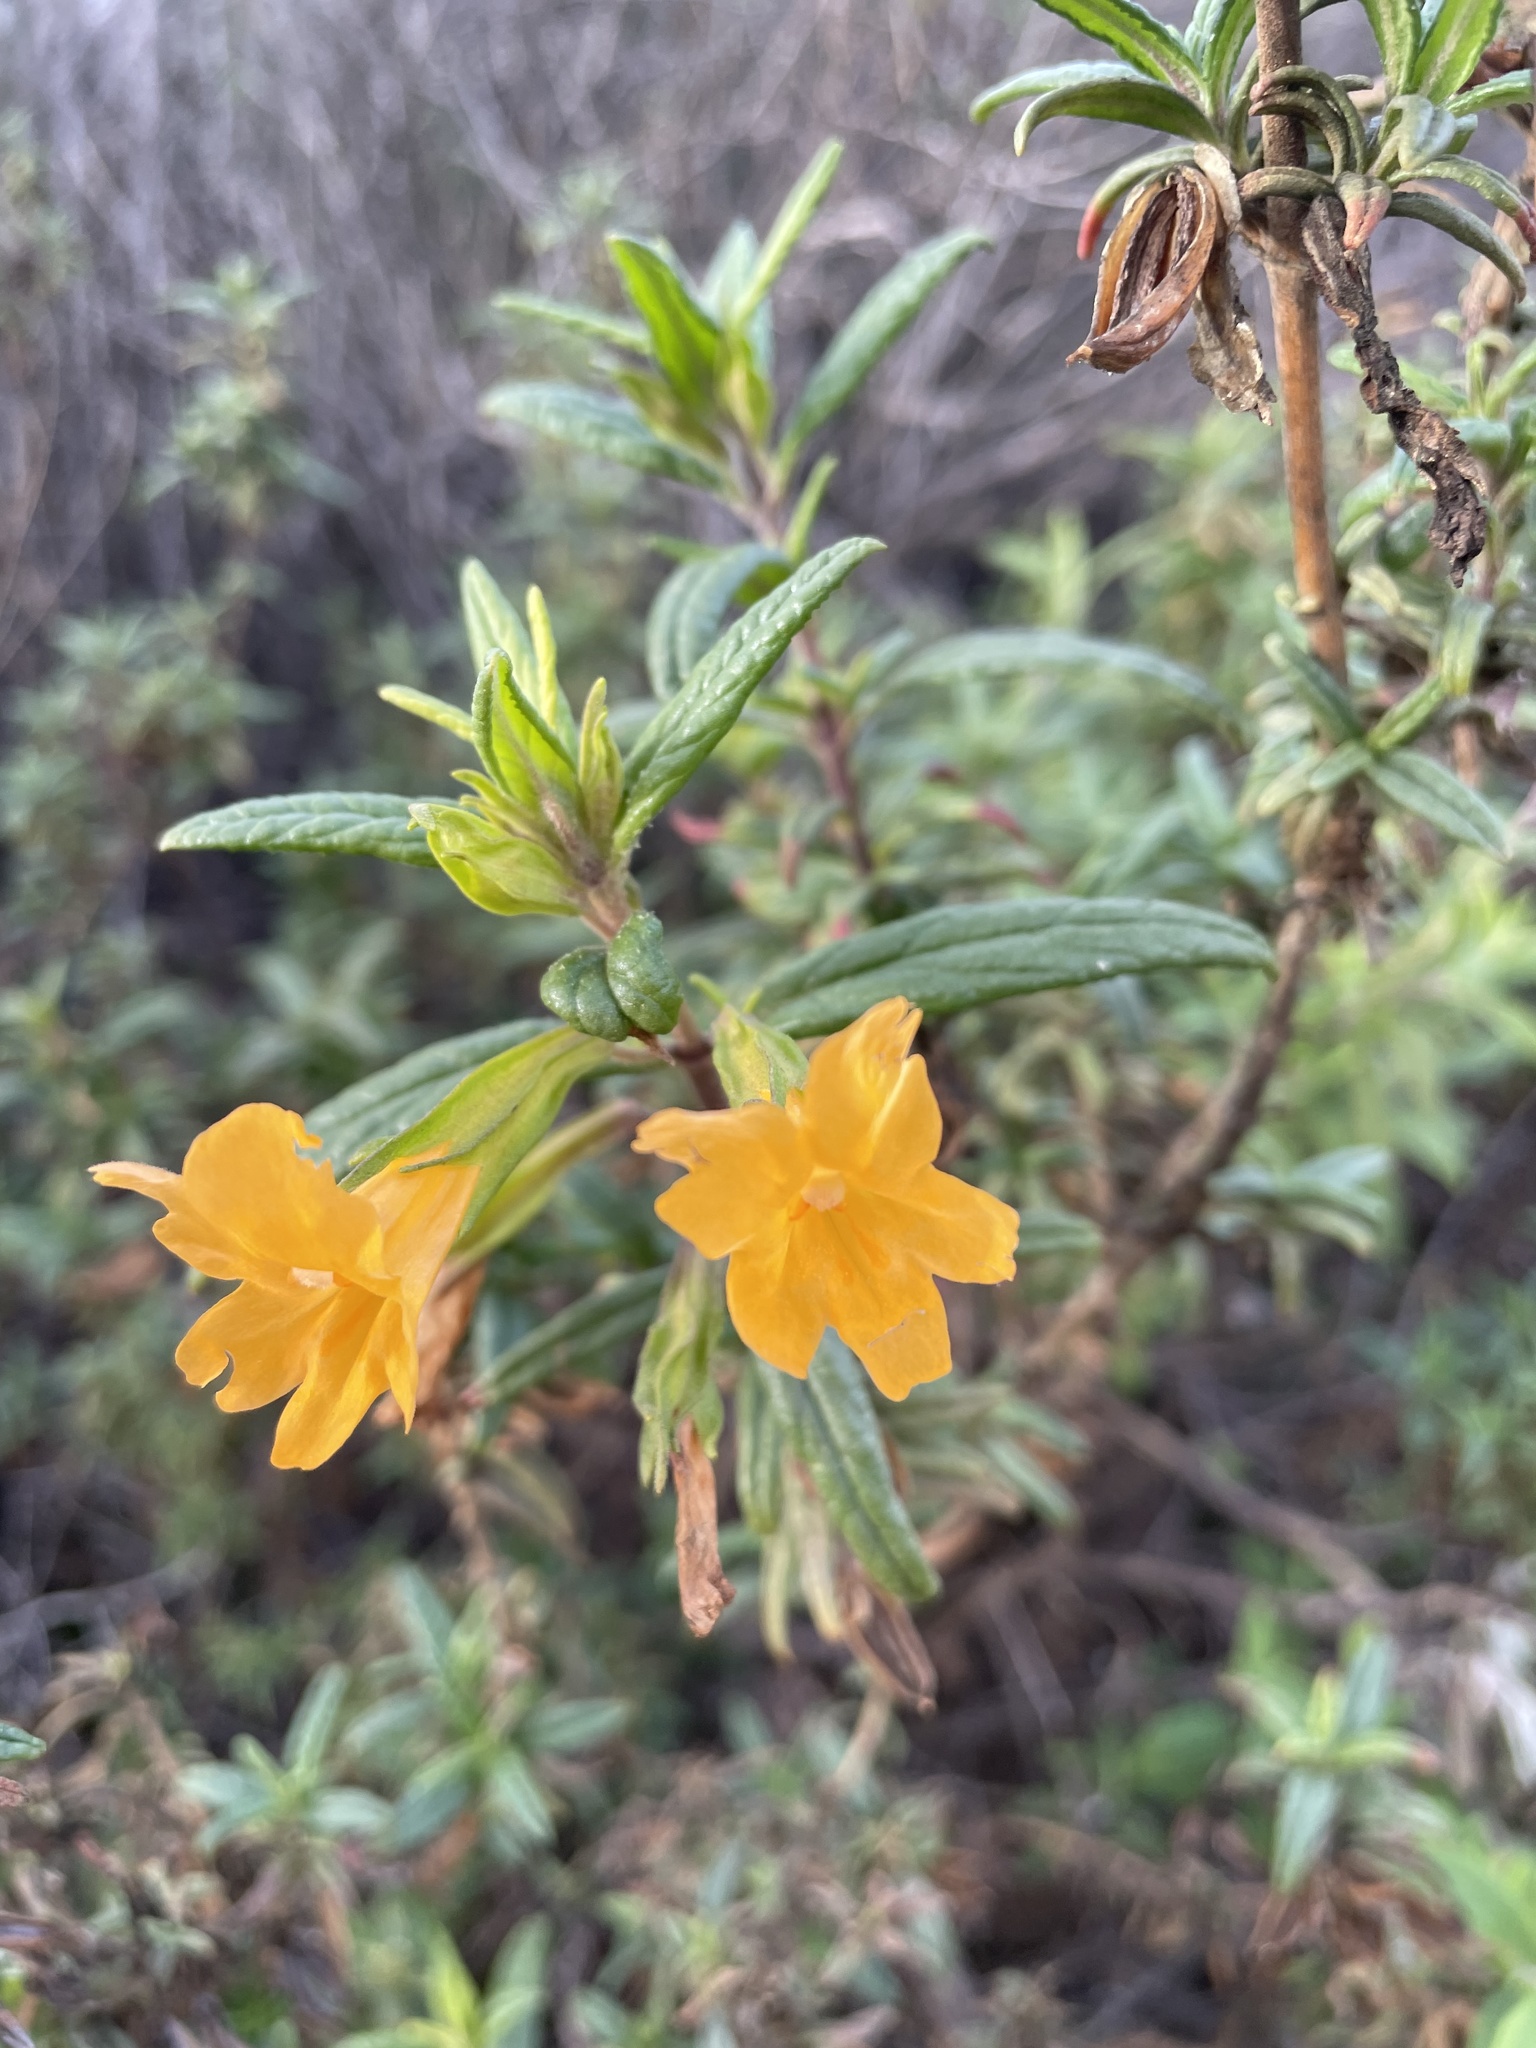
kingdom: Plantae
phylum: Tracheophyta
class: Magnoliopsida
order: Lamiales
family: Phrymaceae
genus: Diplacus
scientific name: Diplacus aurantiacus
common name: Bush monkey-flower
